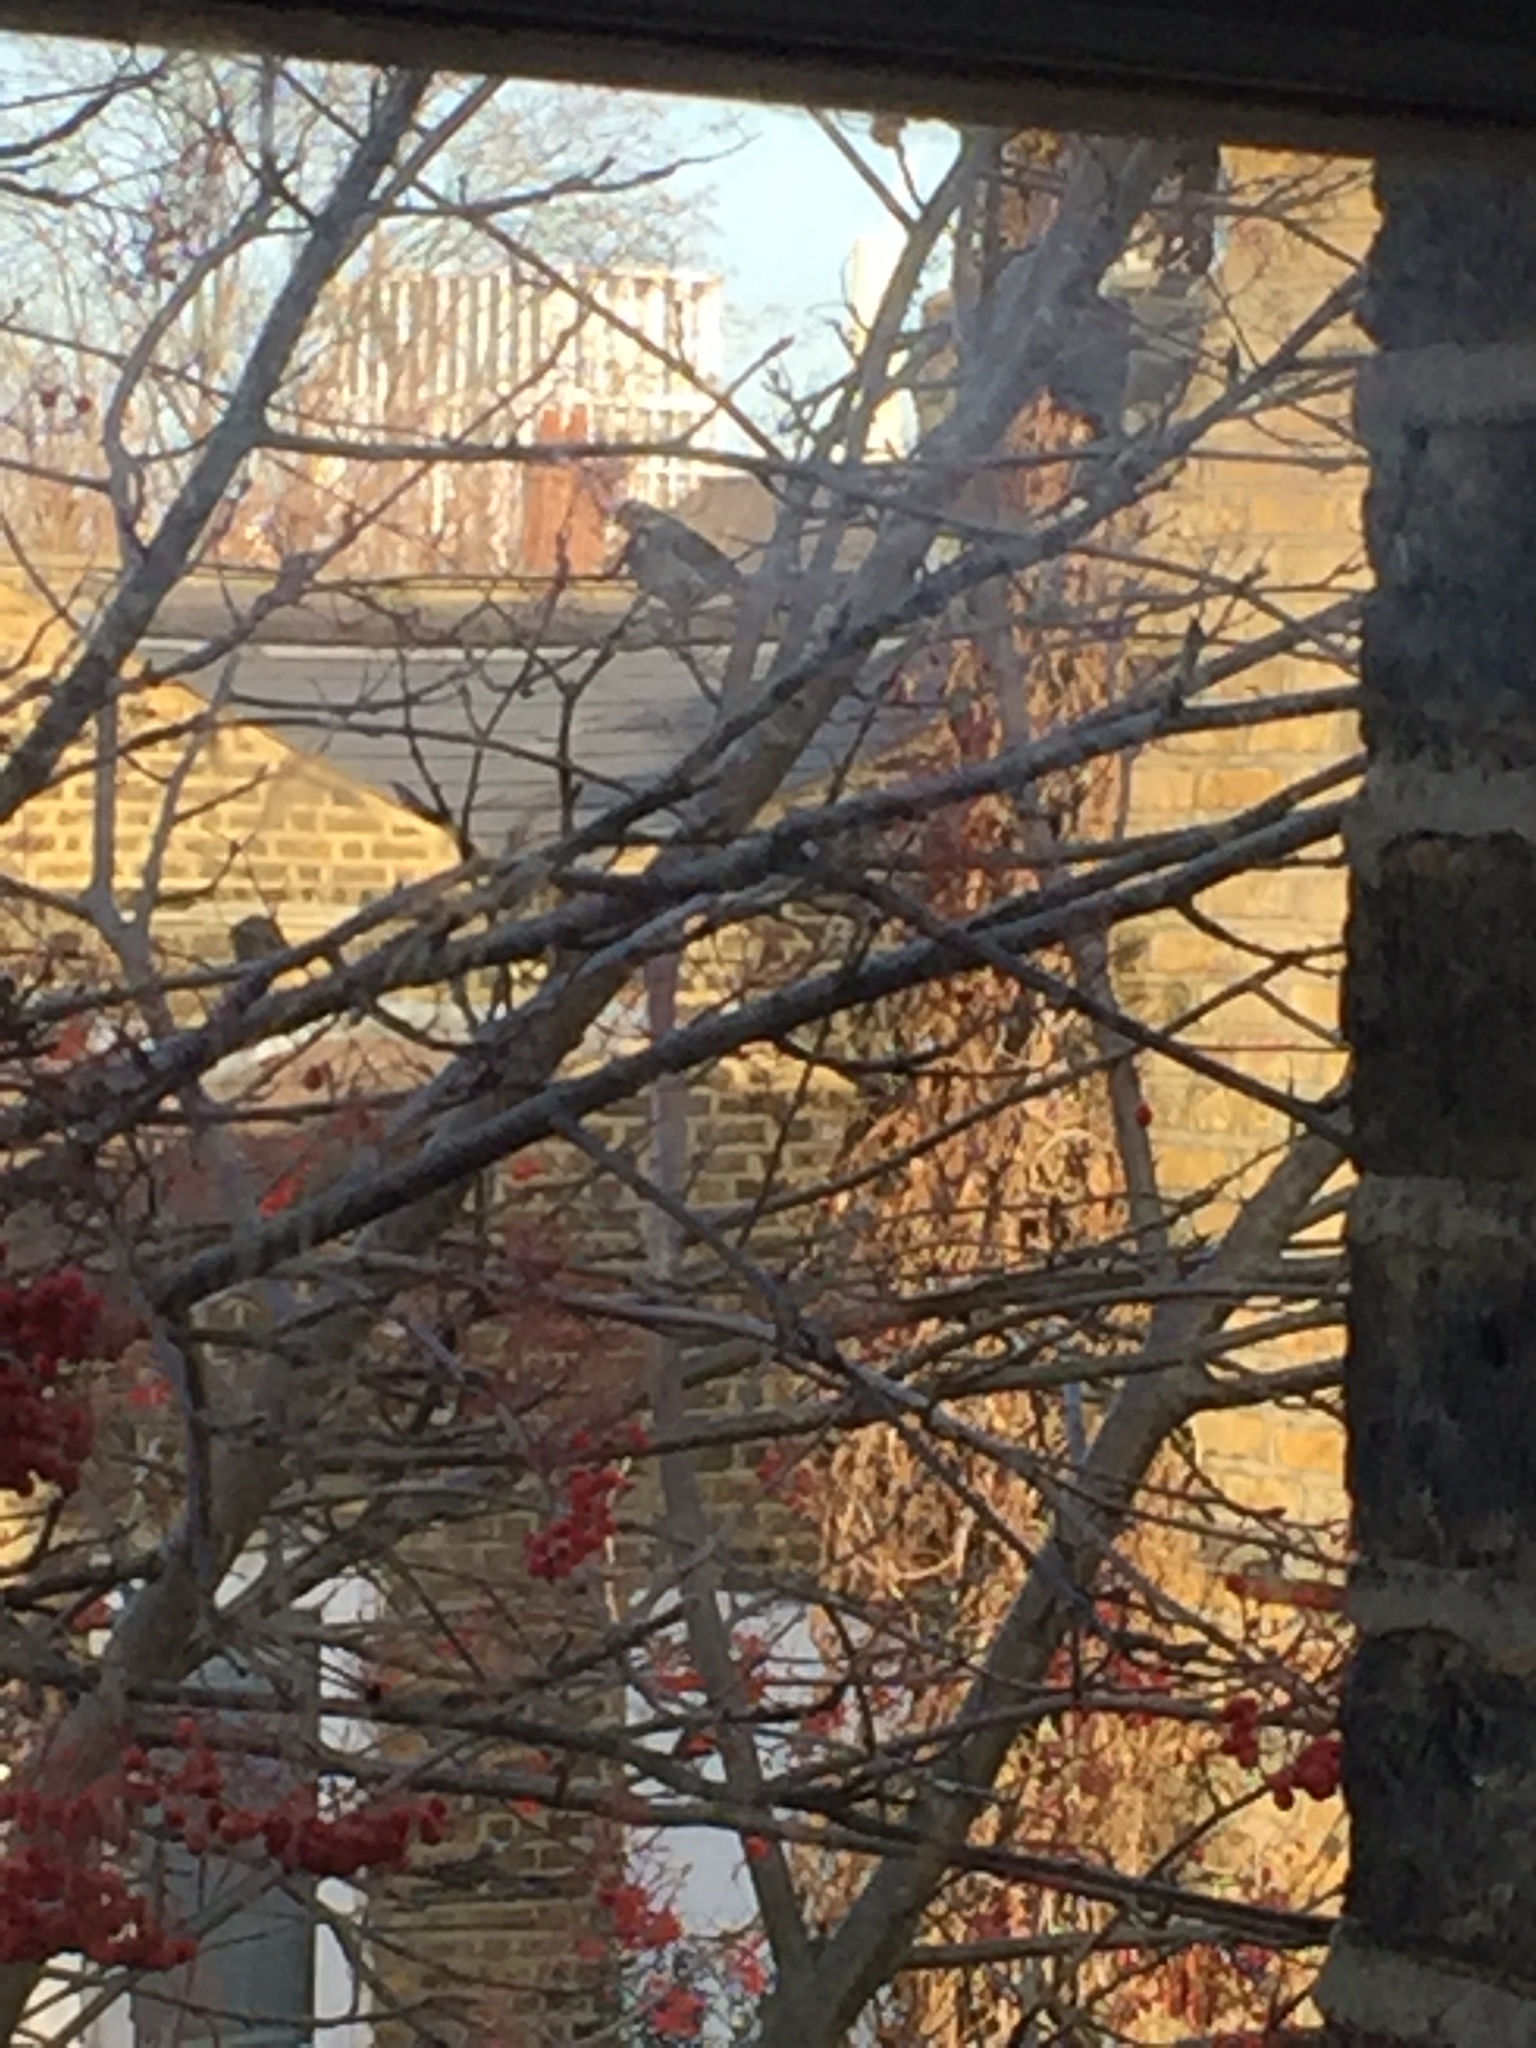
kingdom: Animalia
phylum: Chordata
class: Aves
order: Passeriformes
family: Turdidae
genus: Turdus
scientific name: Turdus iliacus
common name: Redwing
